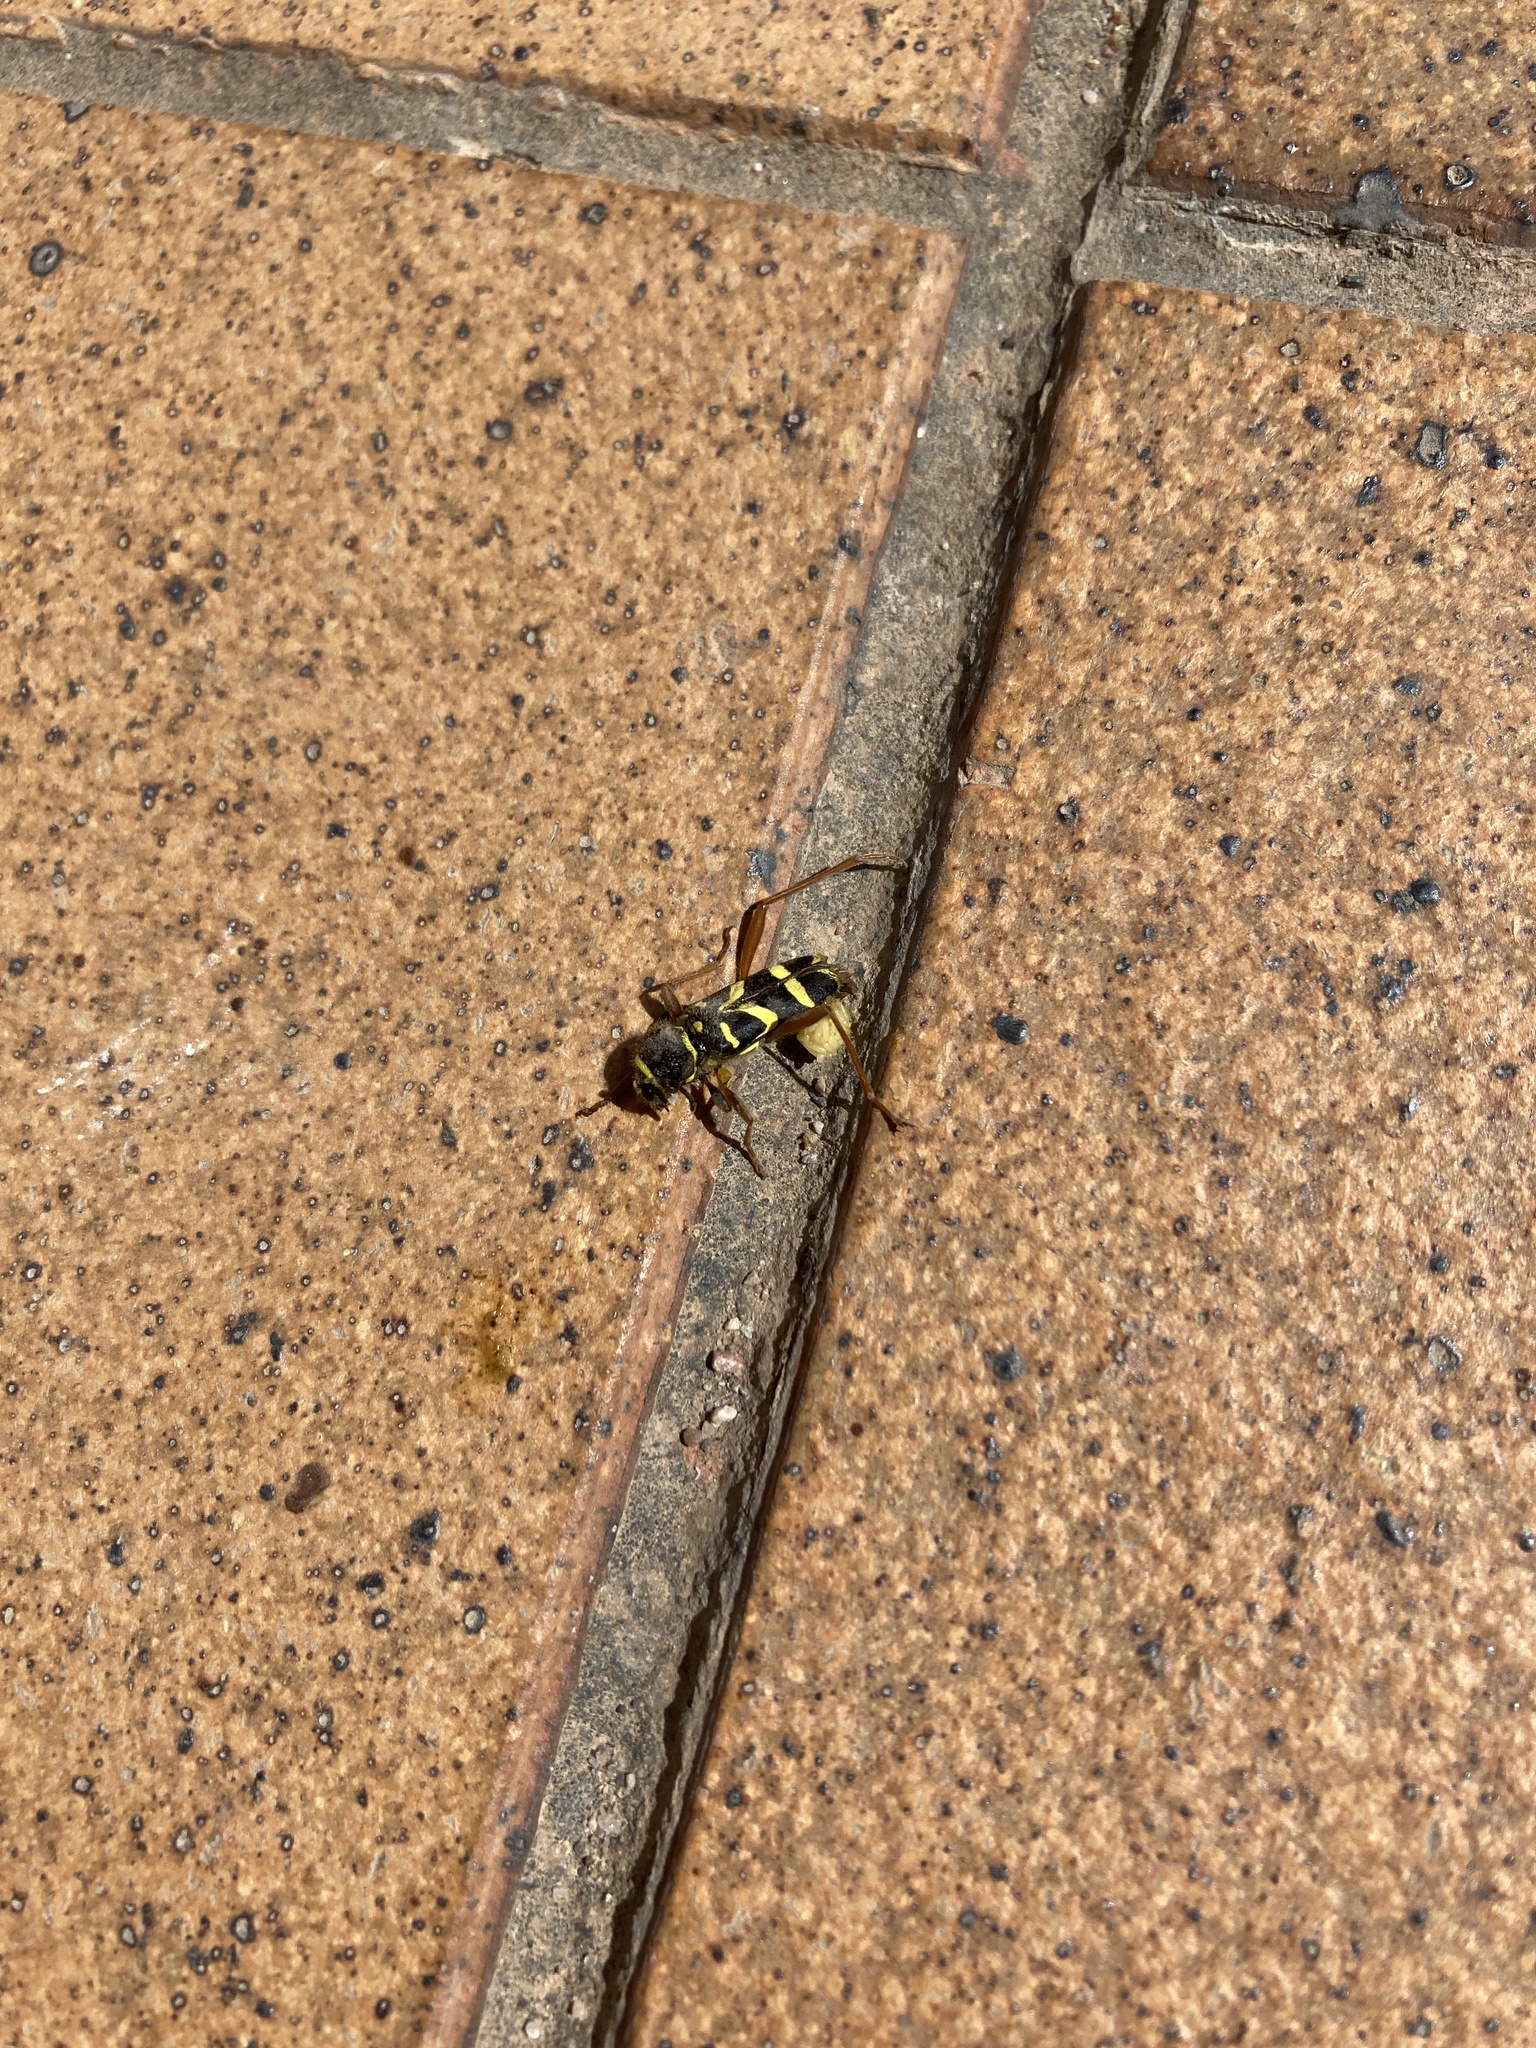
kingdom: Animalia
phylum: Arthropoda
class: Insecta
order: Coleoptera
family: Cerambycidae
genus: Clytus
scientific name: Clytus arietis
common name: Wasp beetle
